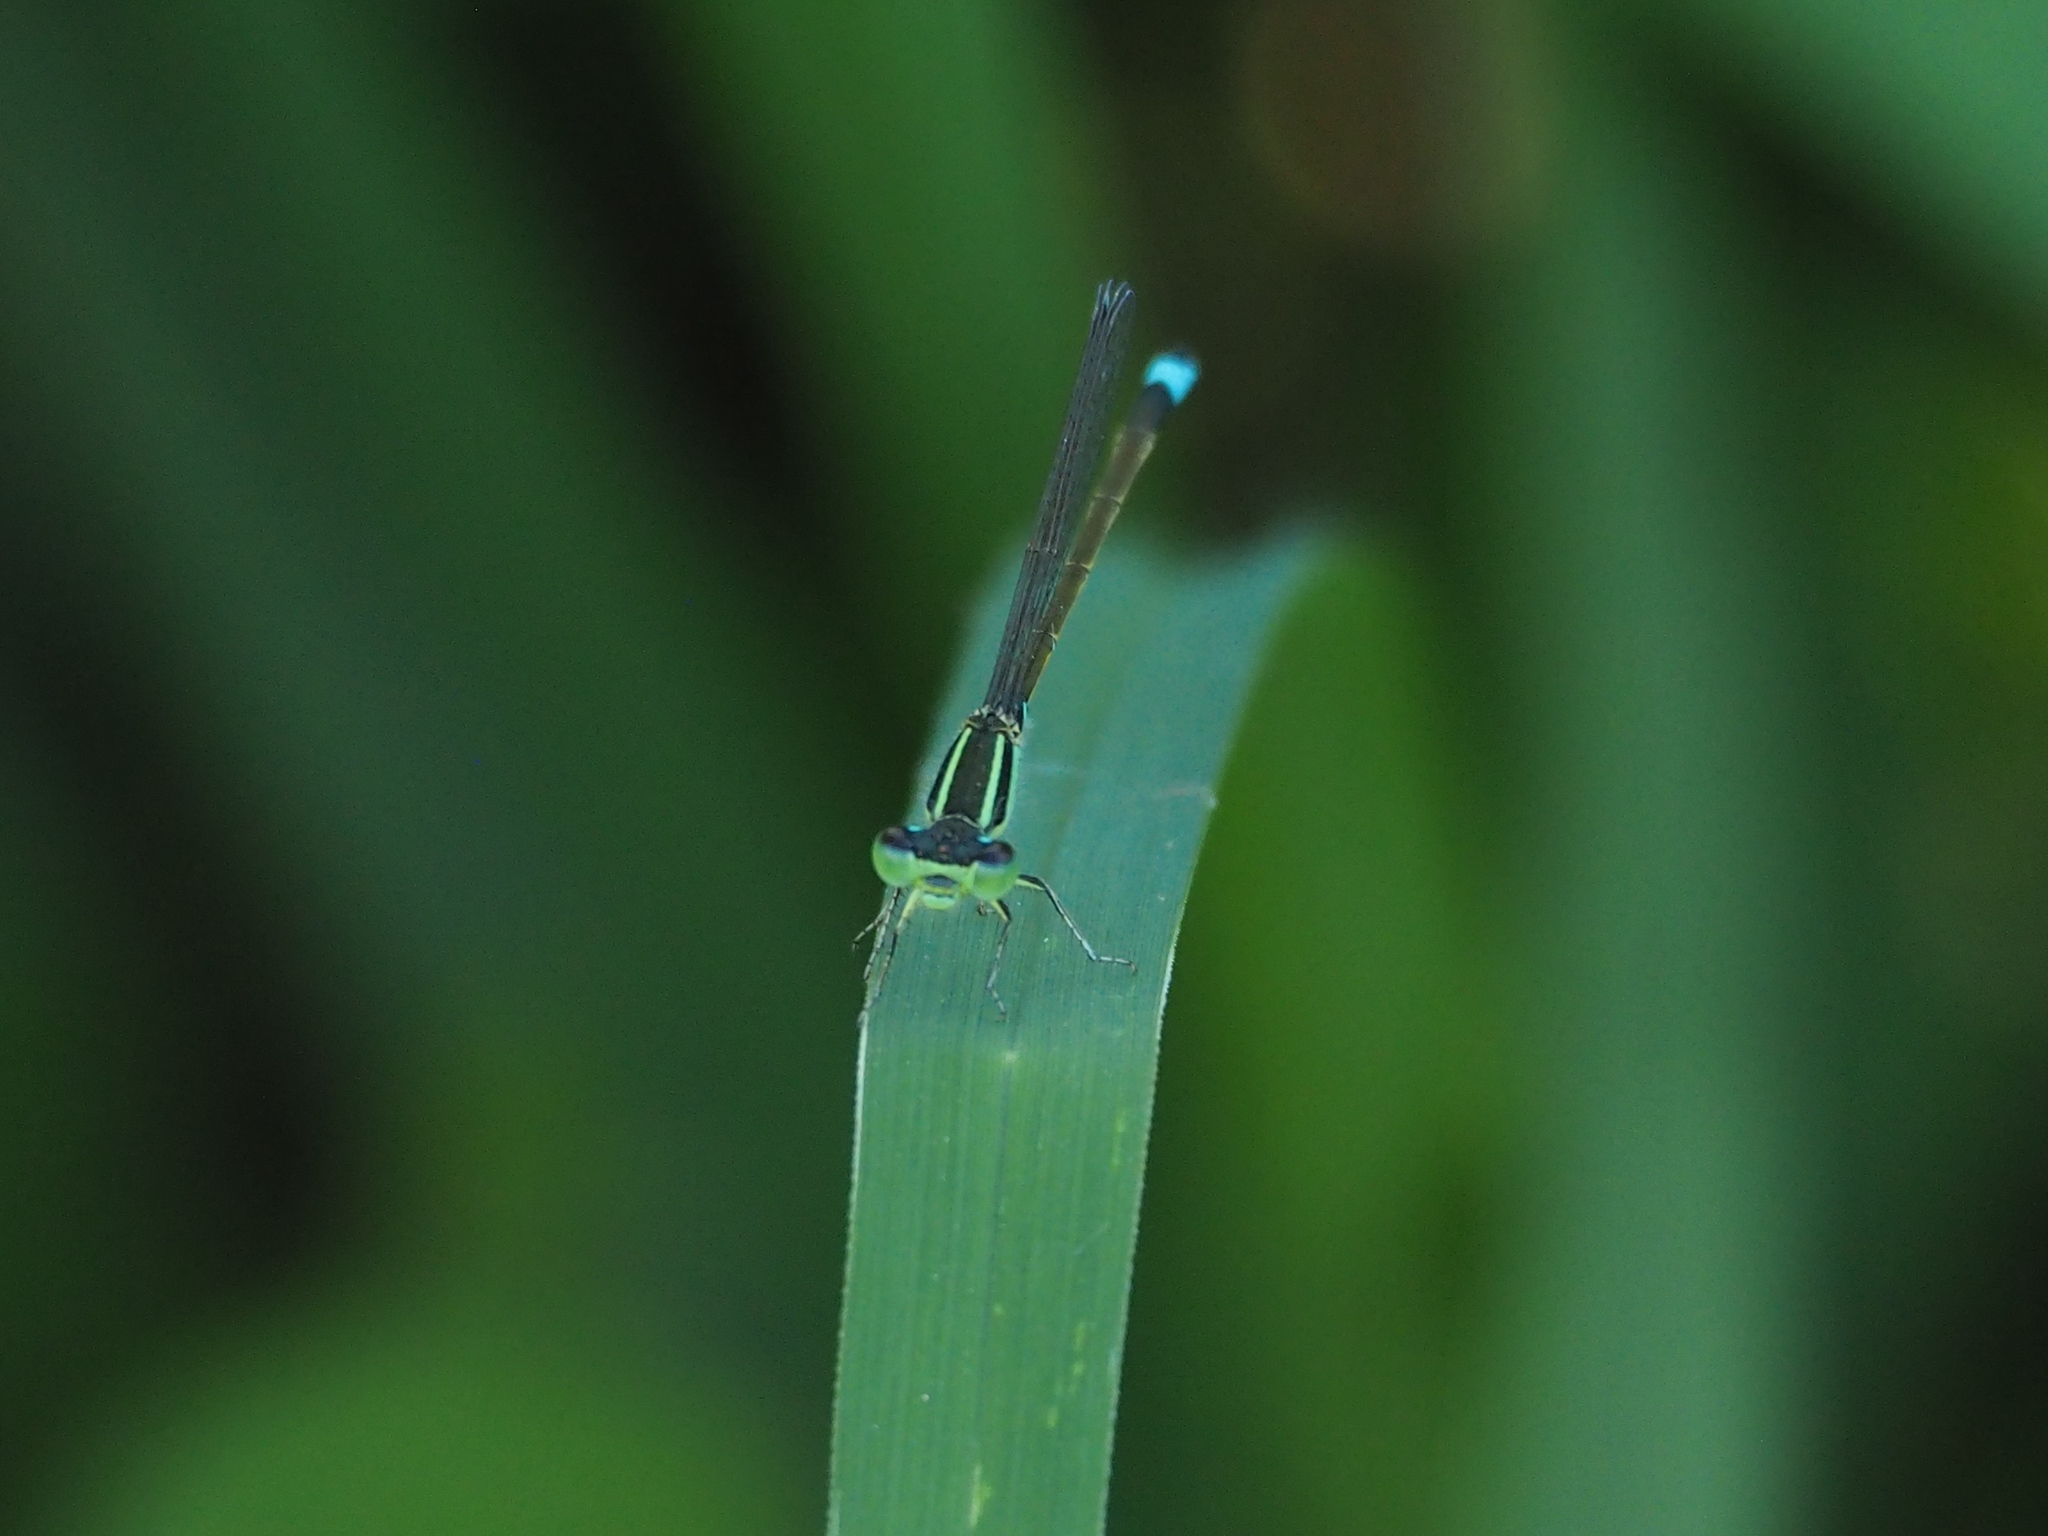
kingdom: Animalia
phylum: Arthropoda
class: Insecta
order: Odonata
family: Coenagrionidae
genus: Ischnura
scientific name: Ischnura senegalensis
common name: Tropical bluetail
